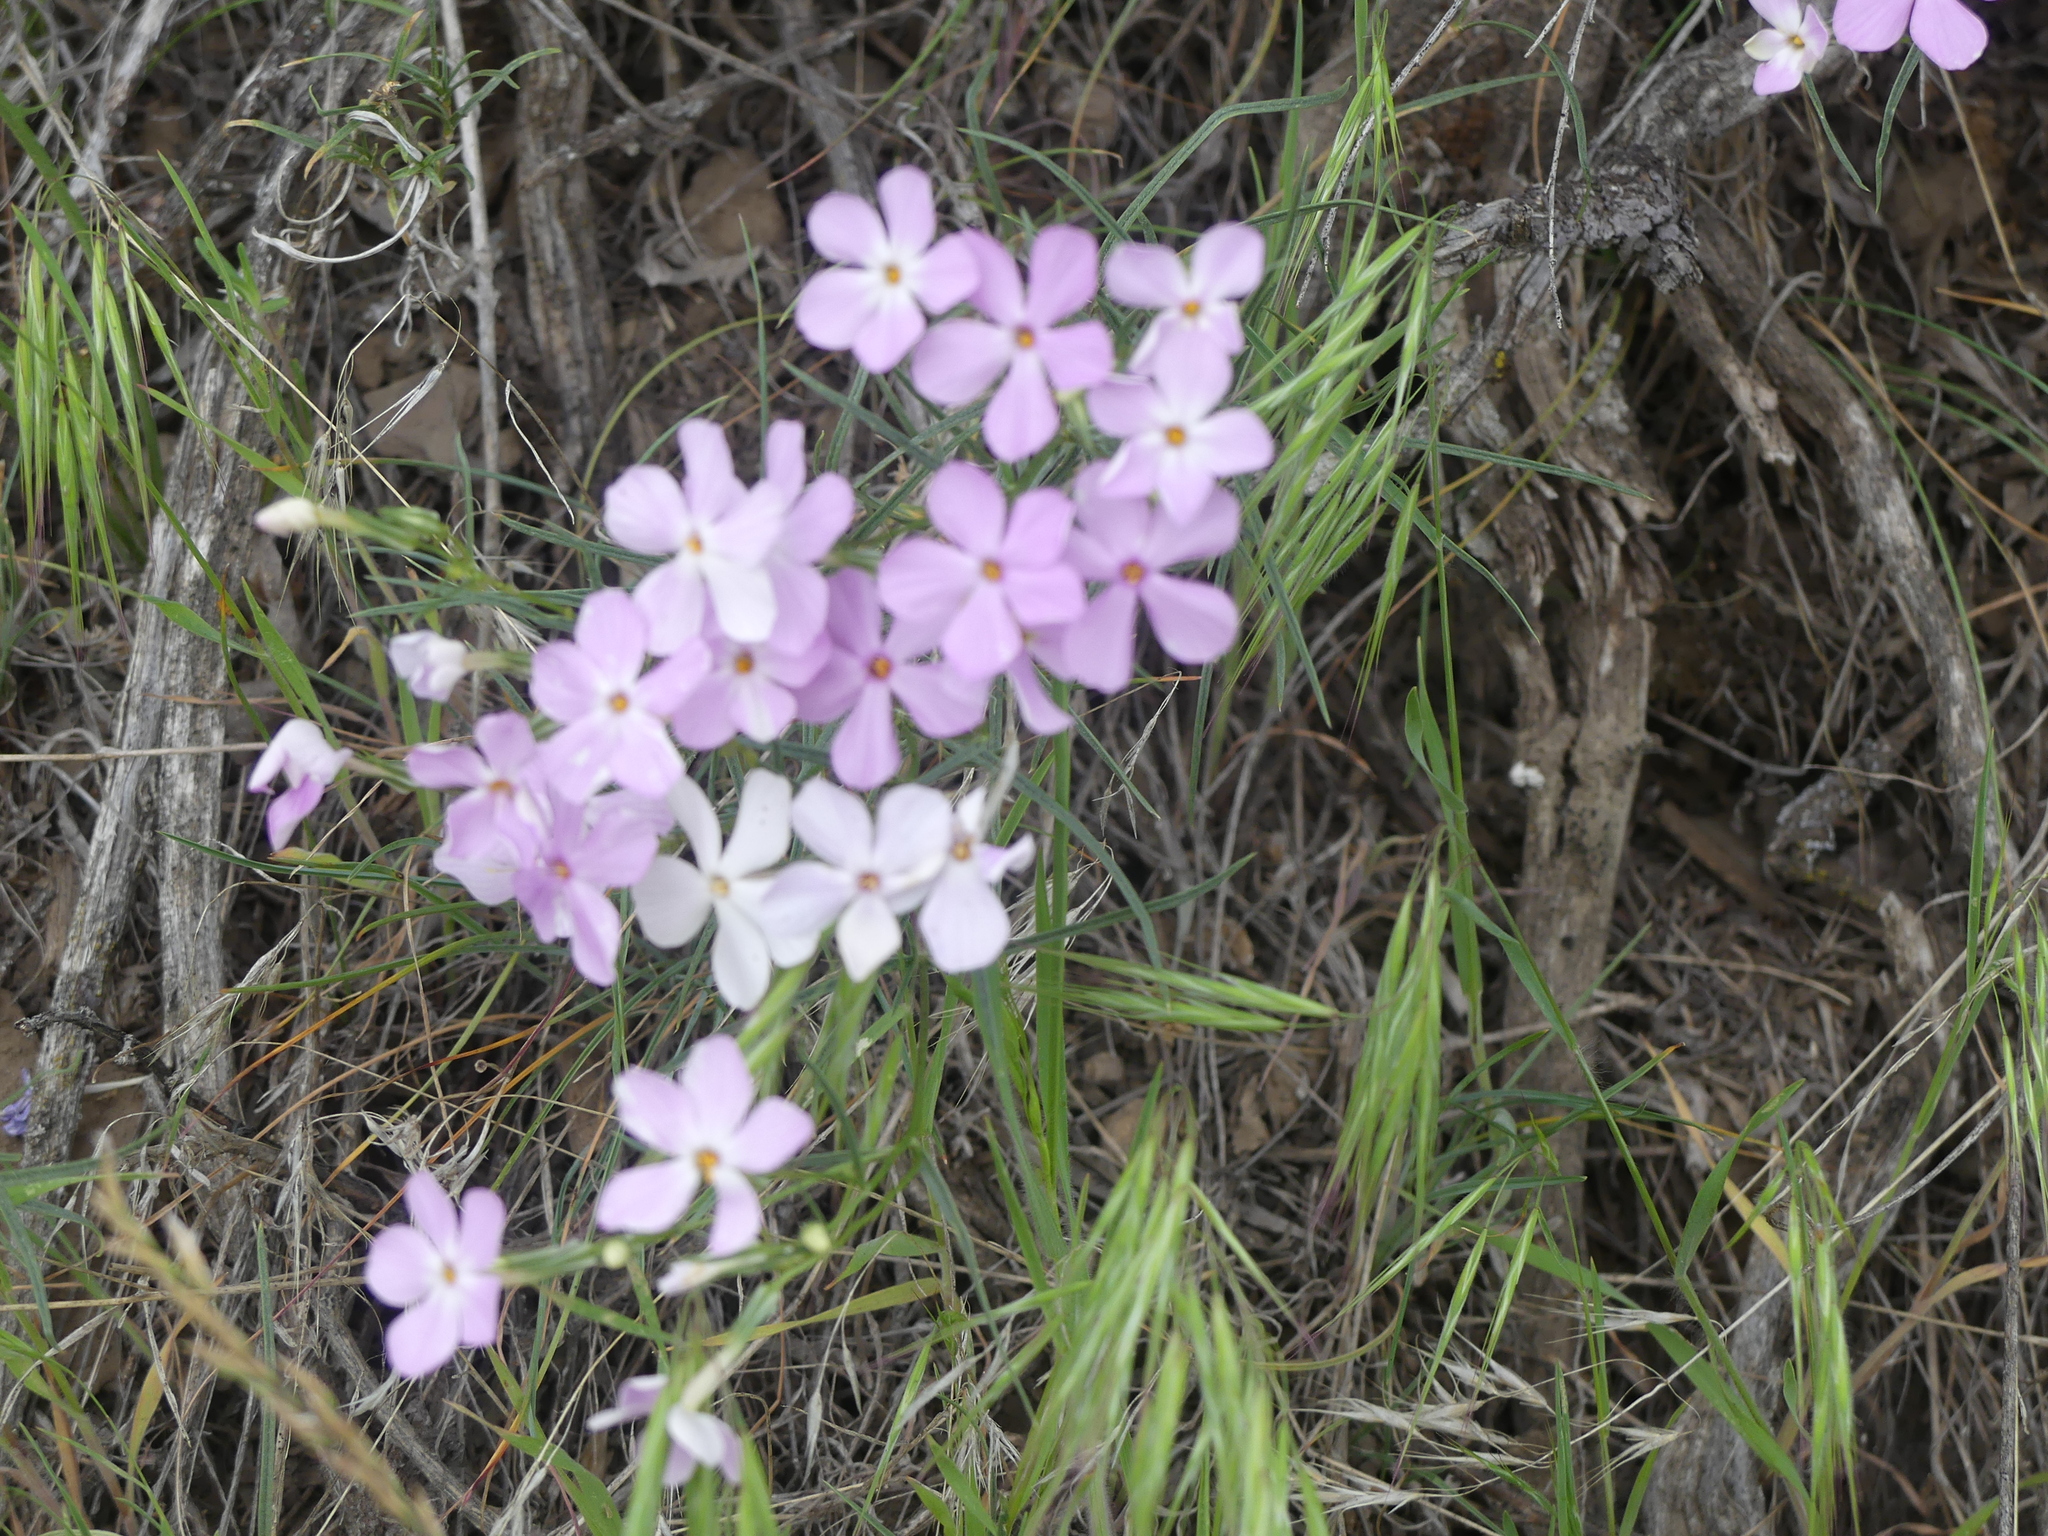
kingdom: Plantae
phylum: Tracheophyta
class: Magnoliopsida
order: Ericales
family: Polemoniaceae
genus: Phlox
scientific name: Phlox longifolia
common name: Longleaf phlox
